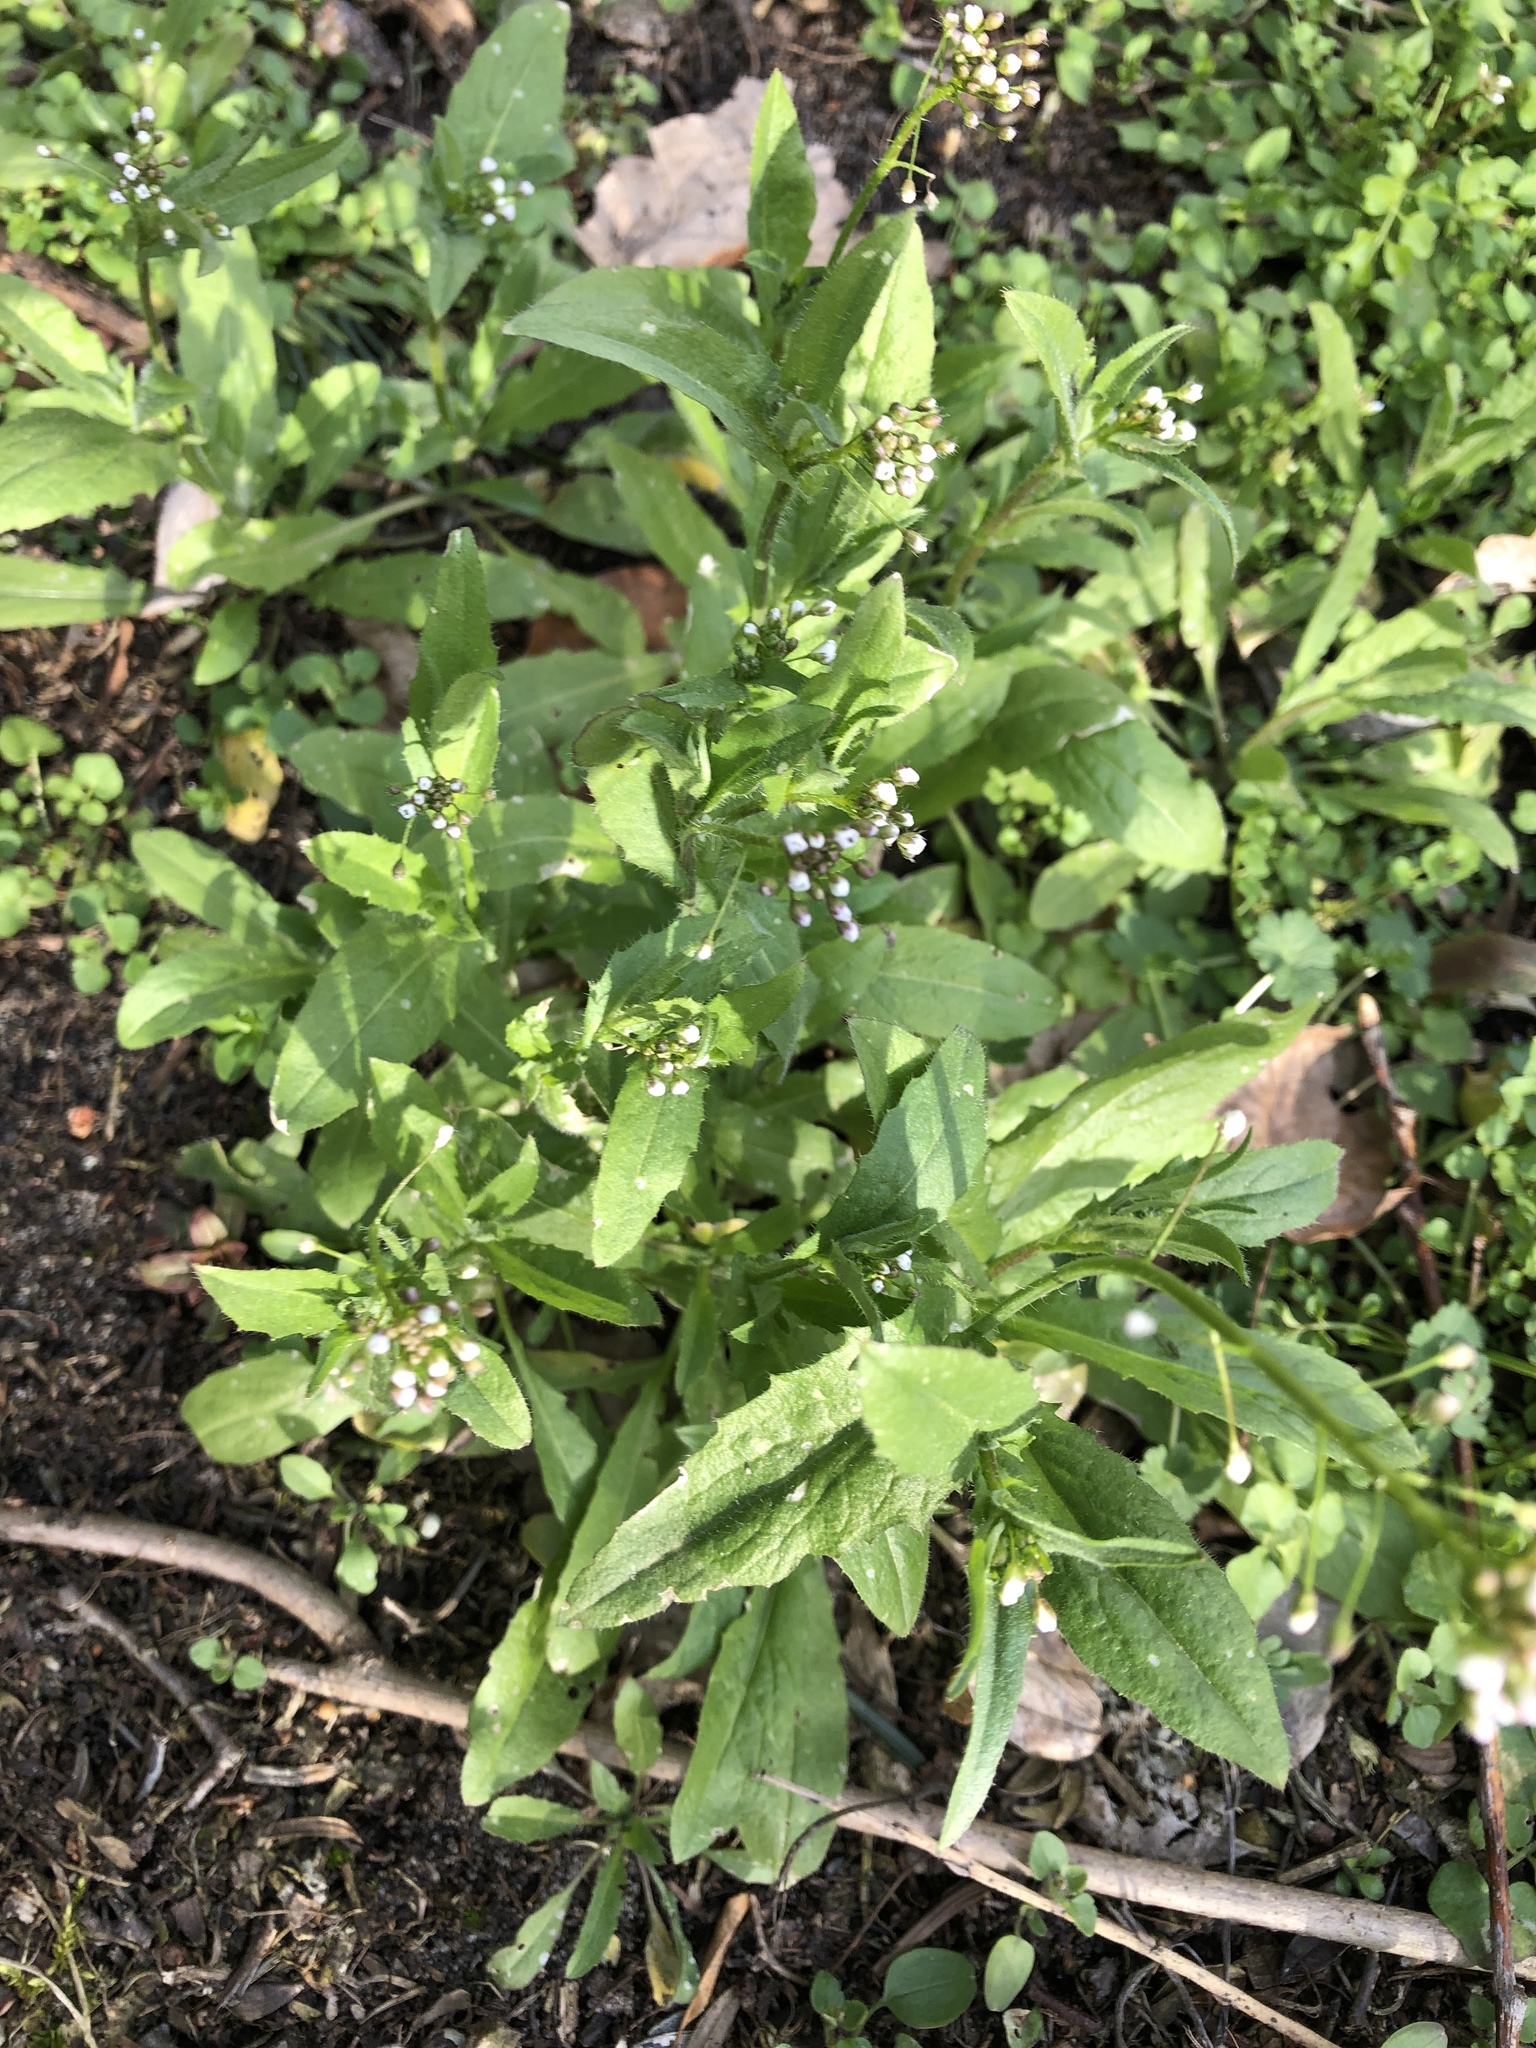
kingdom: Plantae
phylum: Tracheophyta
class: Magnoliopsida
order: Brassicales
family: Brassicaceae
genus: Capsella
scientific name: Capsella bursa-pastoris
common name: Shepherd's purse
